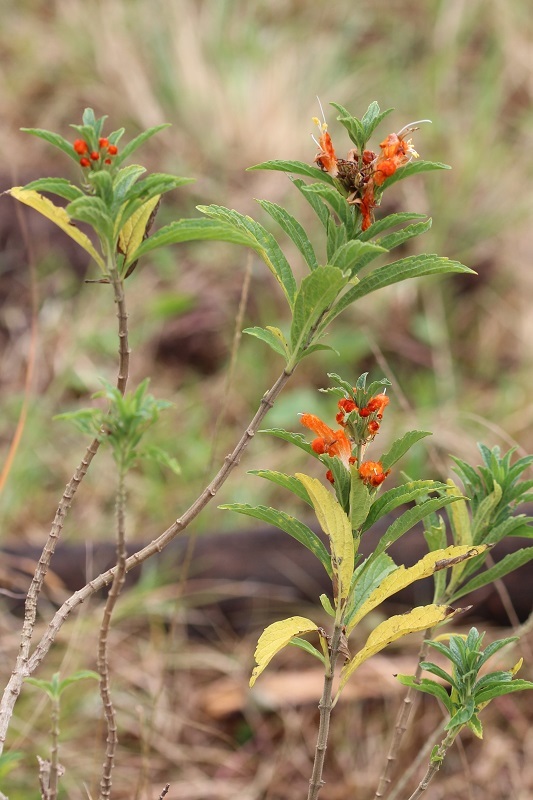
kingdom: Plantae
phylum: Tracheophyta
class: Magnoliopsida
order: Lamiales
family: Lamiaceae
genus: Leonotis
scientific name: Leonotis leonurus
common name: Lion's ear
